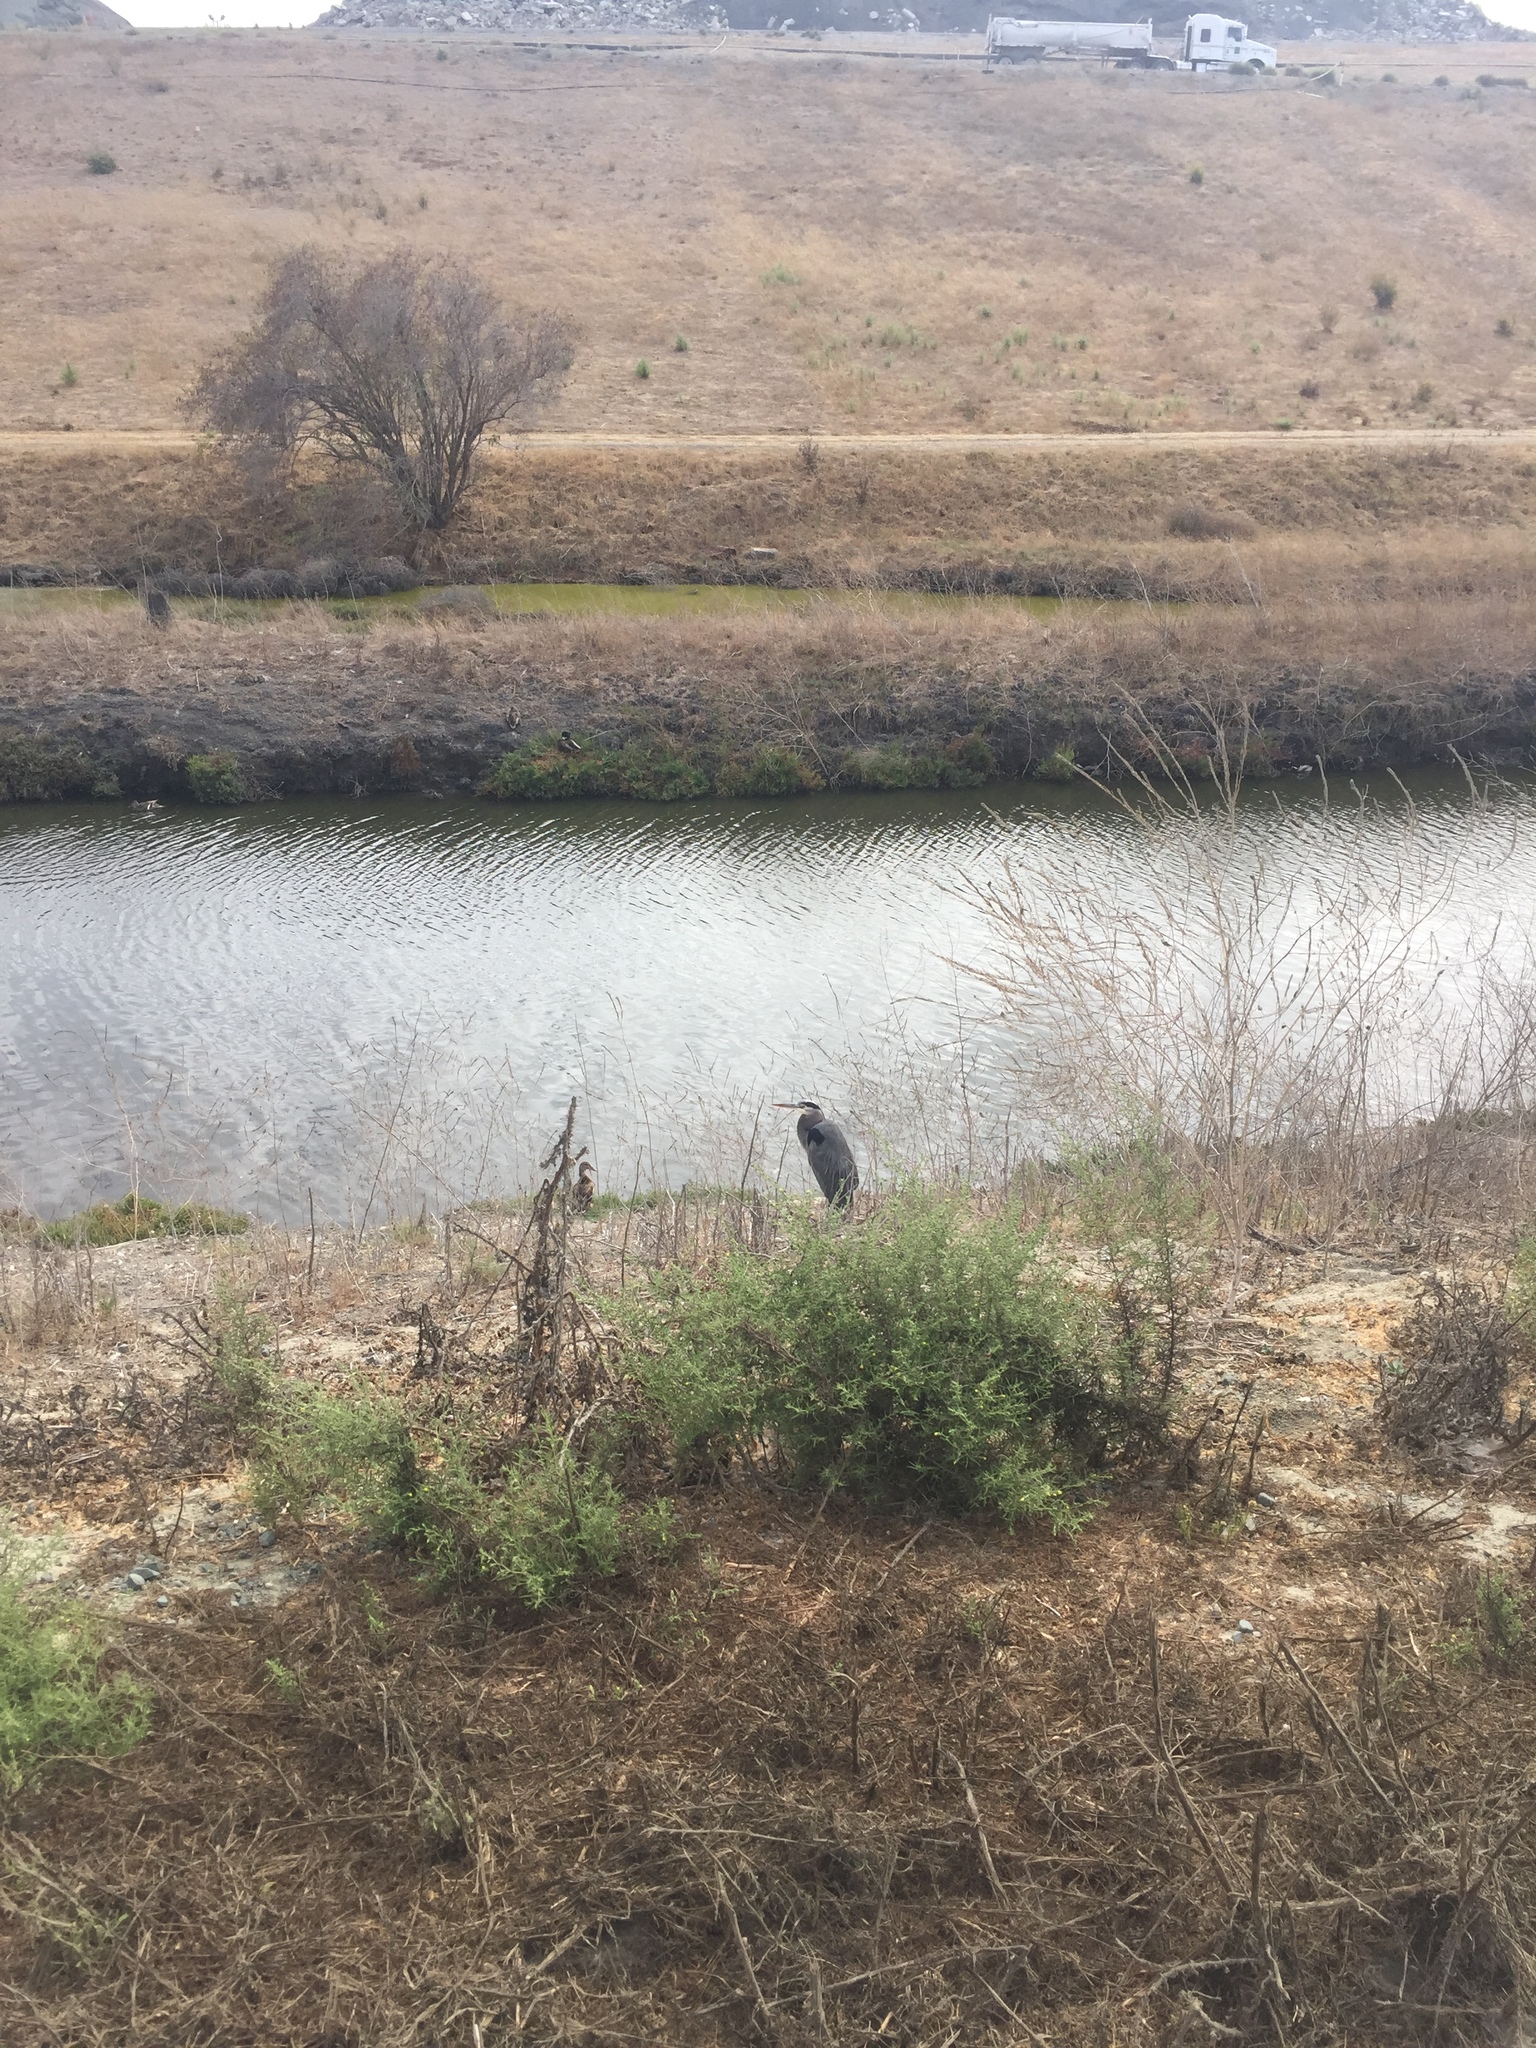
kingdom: Animalia
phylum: Chordata
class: Aves
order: Pelecaniformes
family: Ardeidae
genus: Ardea
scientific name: Ardea herodias
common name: Great blue heron
